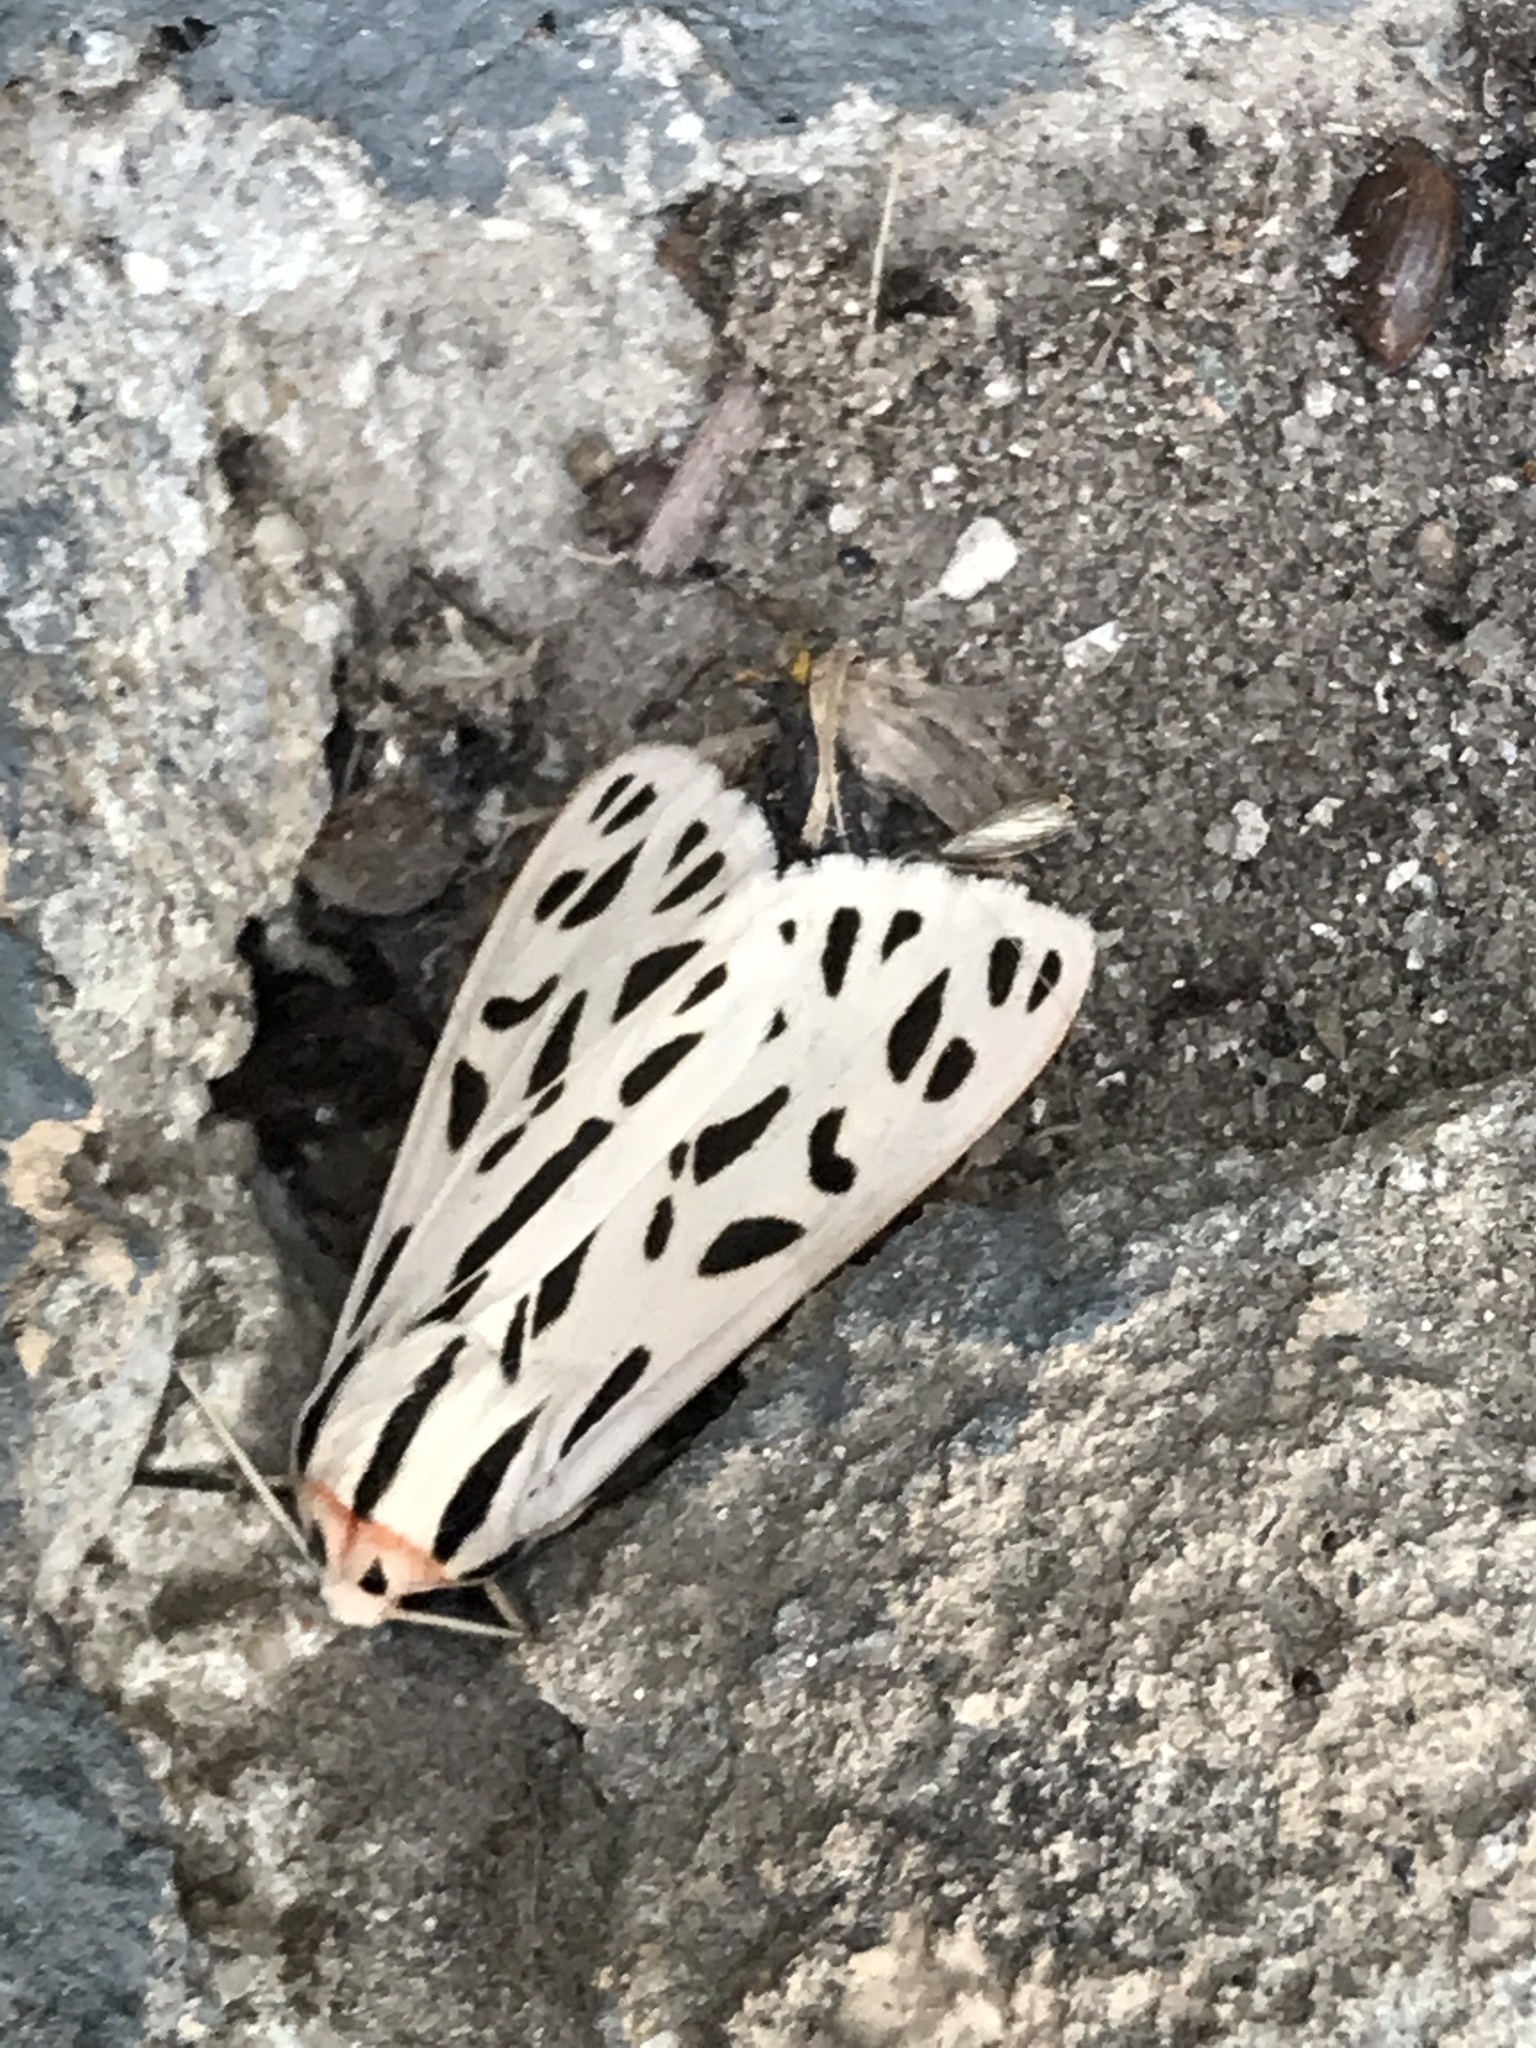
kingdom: Animalia
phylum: Arthropoda
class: Insecta
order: Lepidoptera
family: Erebidae
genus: Apantesis
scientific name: Apantesis arge
